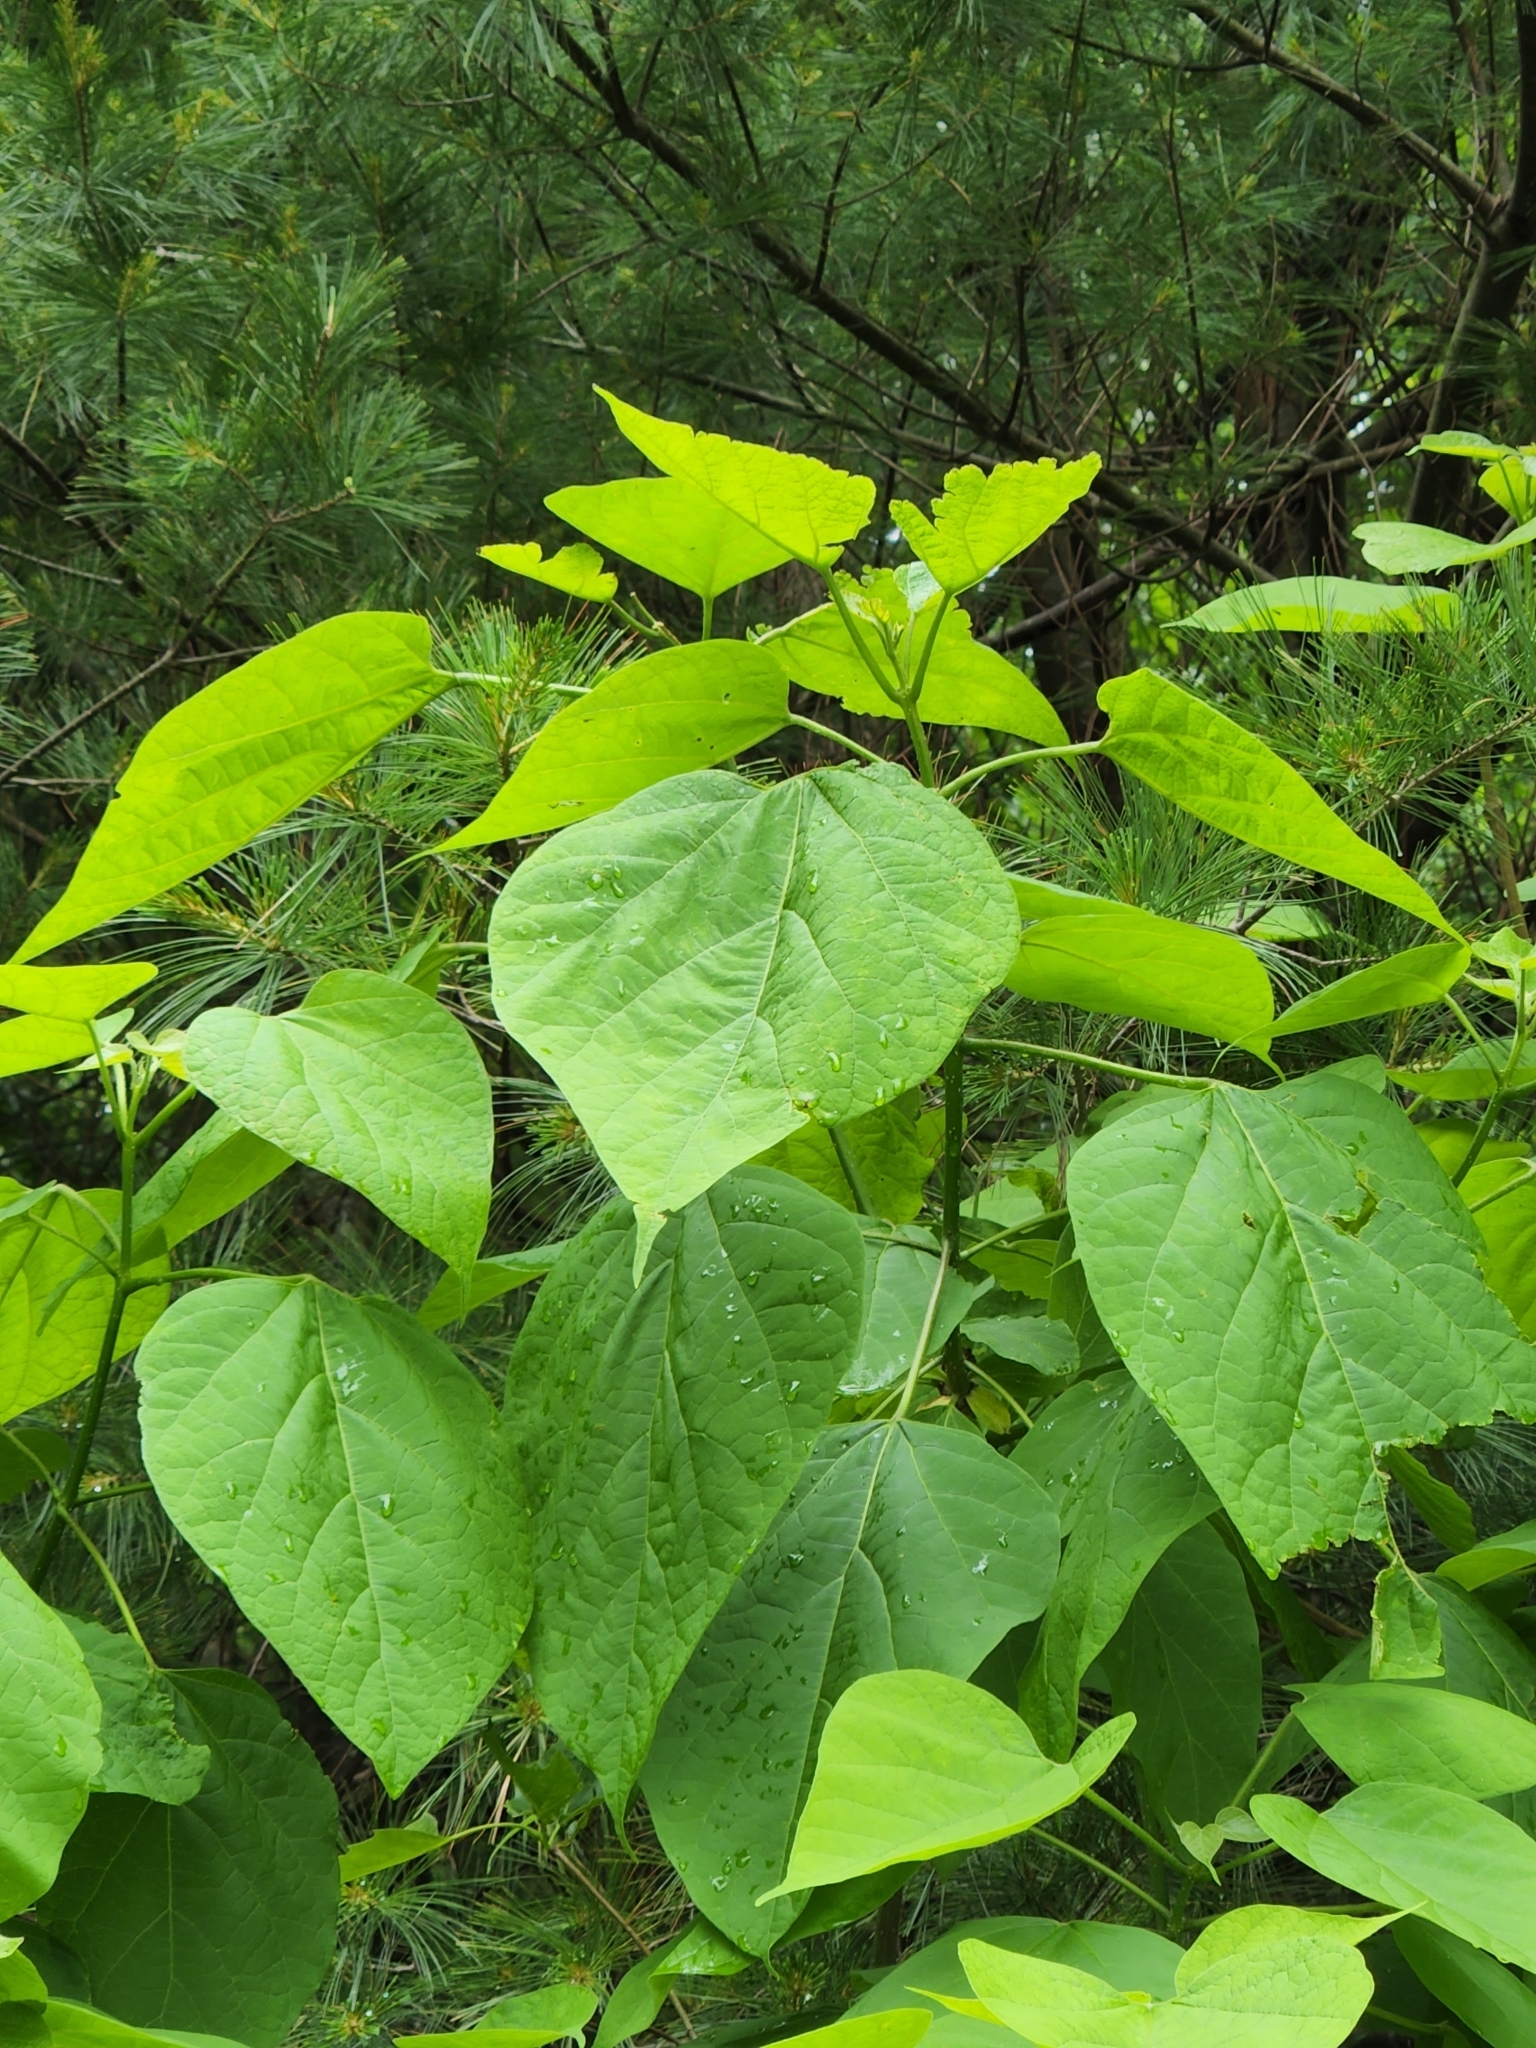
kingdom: Plantae
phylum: Tracheophyta
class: Magnoliopsida
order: Lamiales
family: Paulowniaceae
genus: Paulownia
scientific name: Paulownia tomentosa
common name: Foxglove-tree
